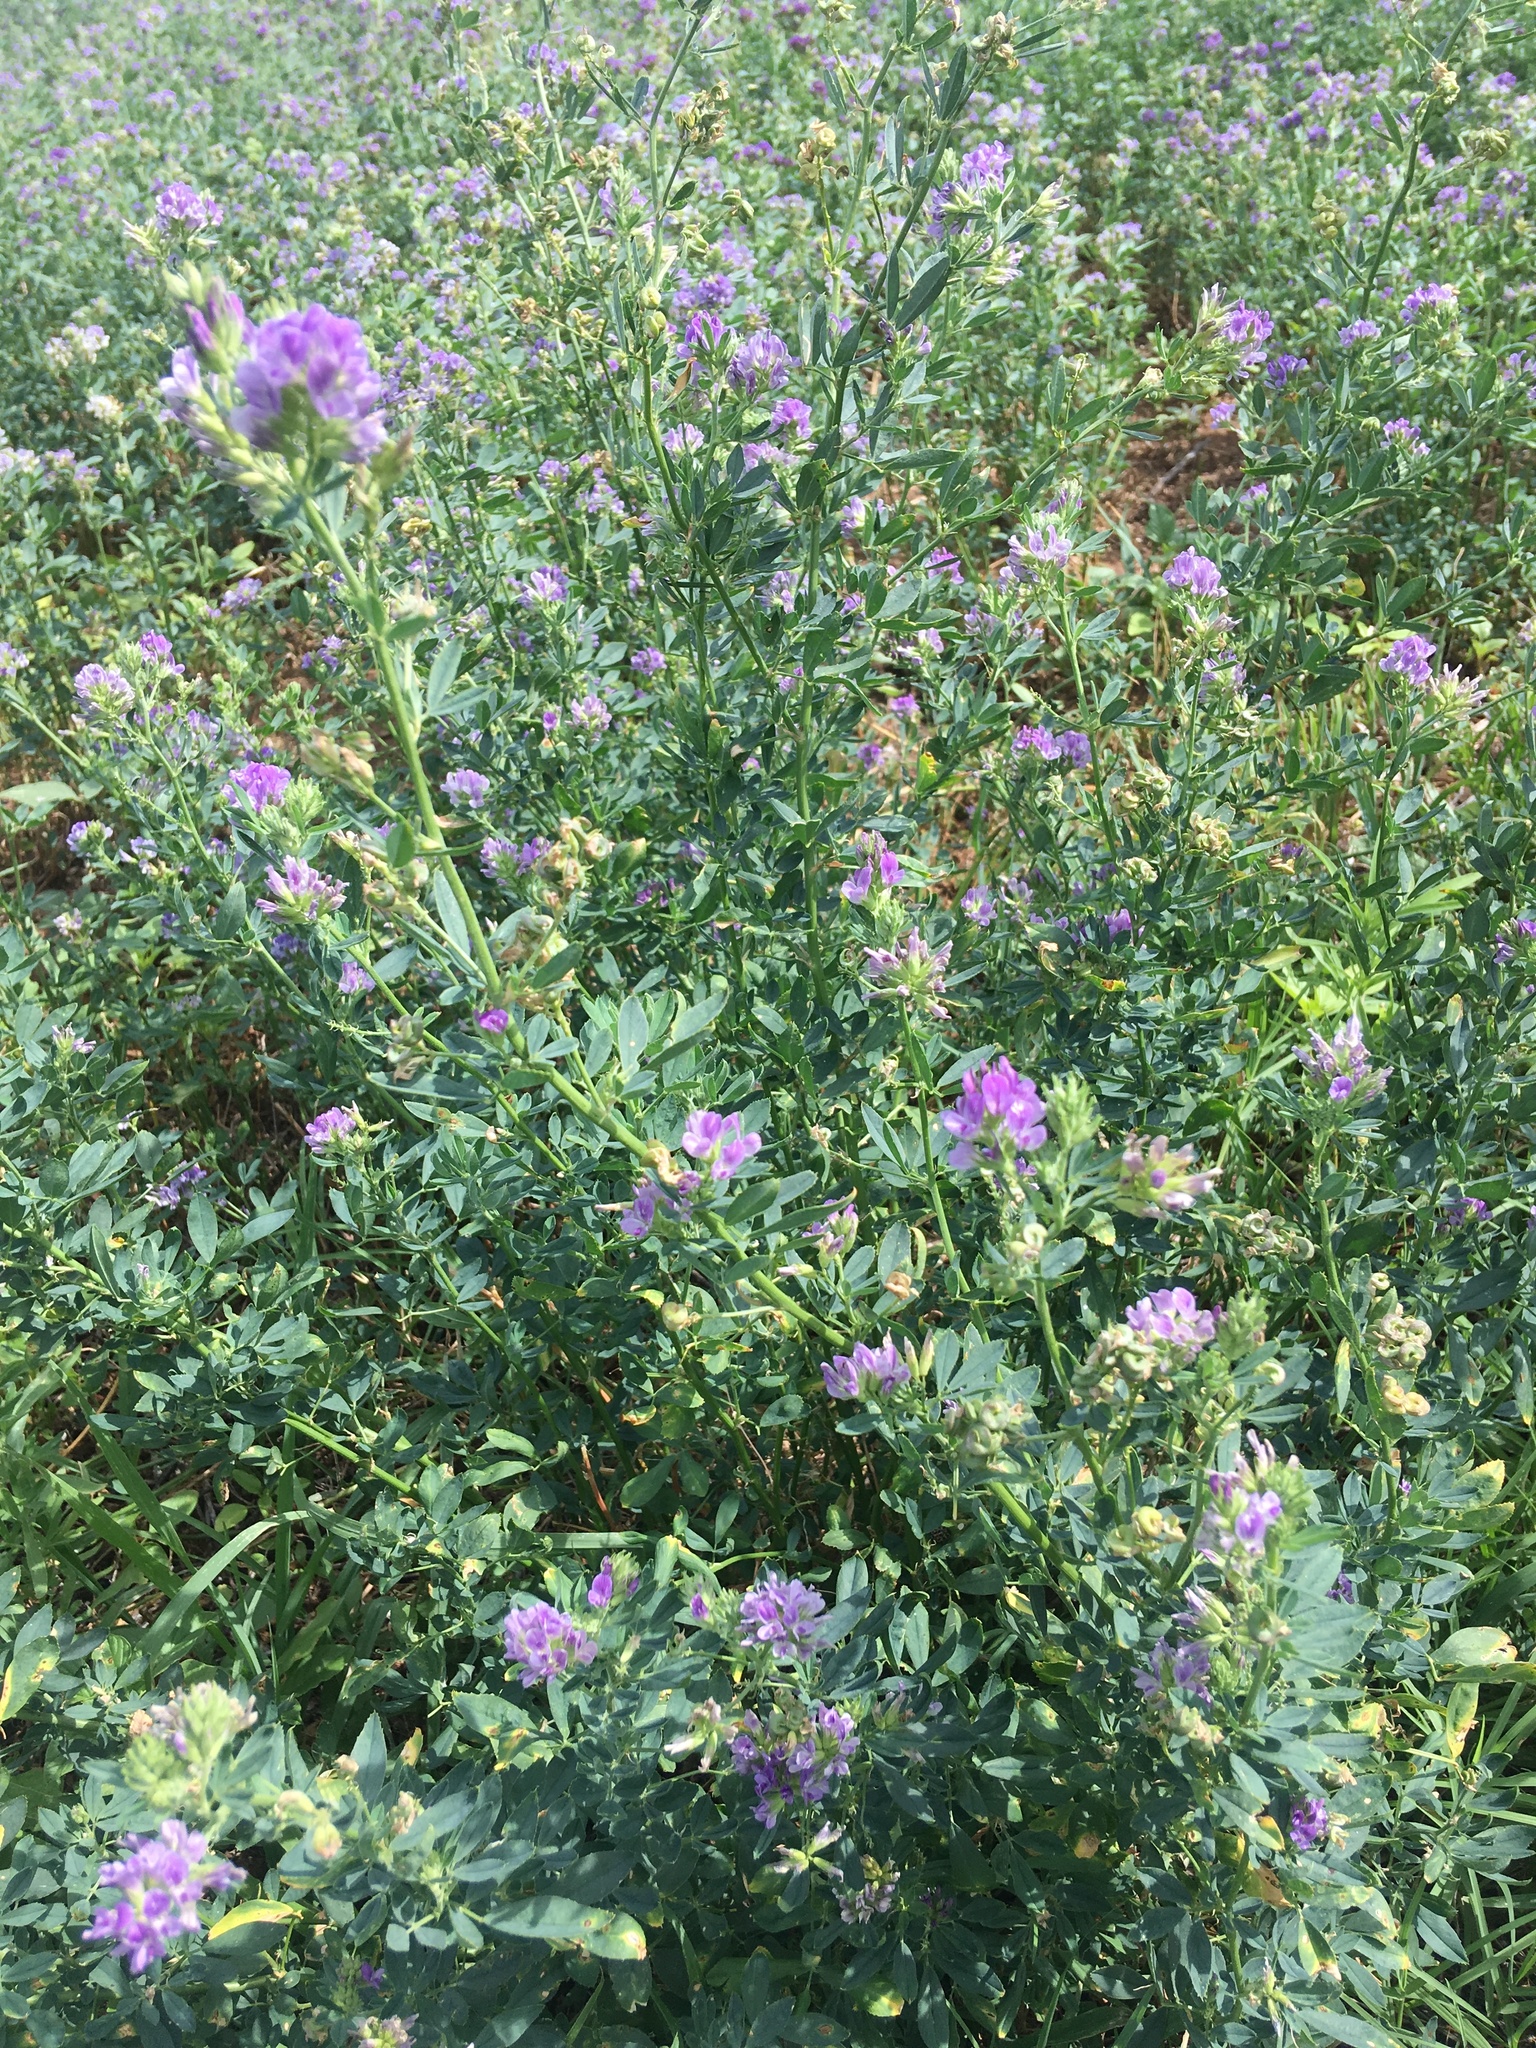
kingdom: Plantae
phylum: Tracheophyta
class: Magnoliopsida
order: Fabales
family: Fabaceae
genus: Medicago
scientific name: Medicago sativa
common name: Alfalfa
